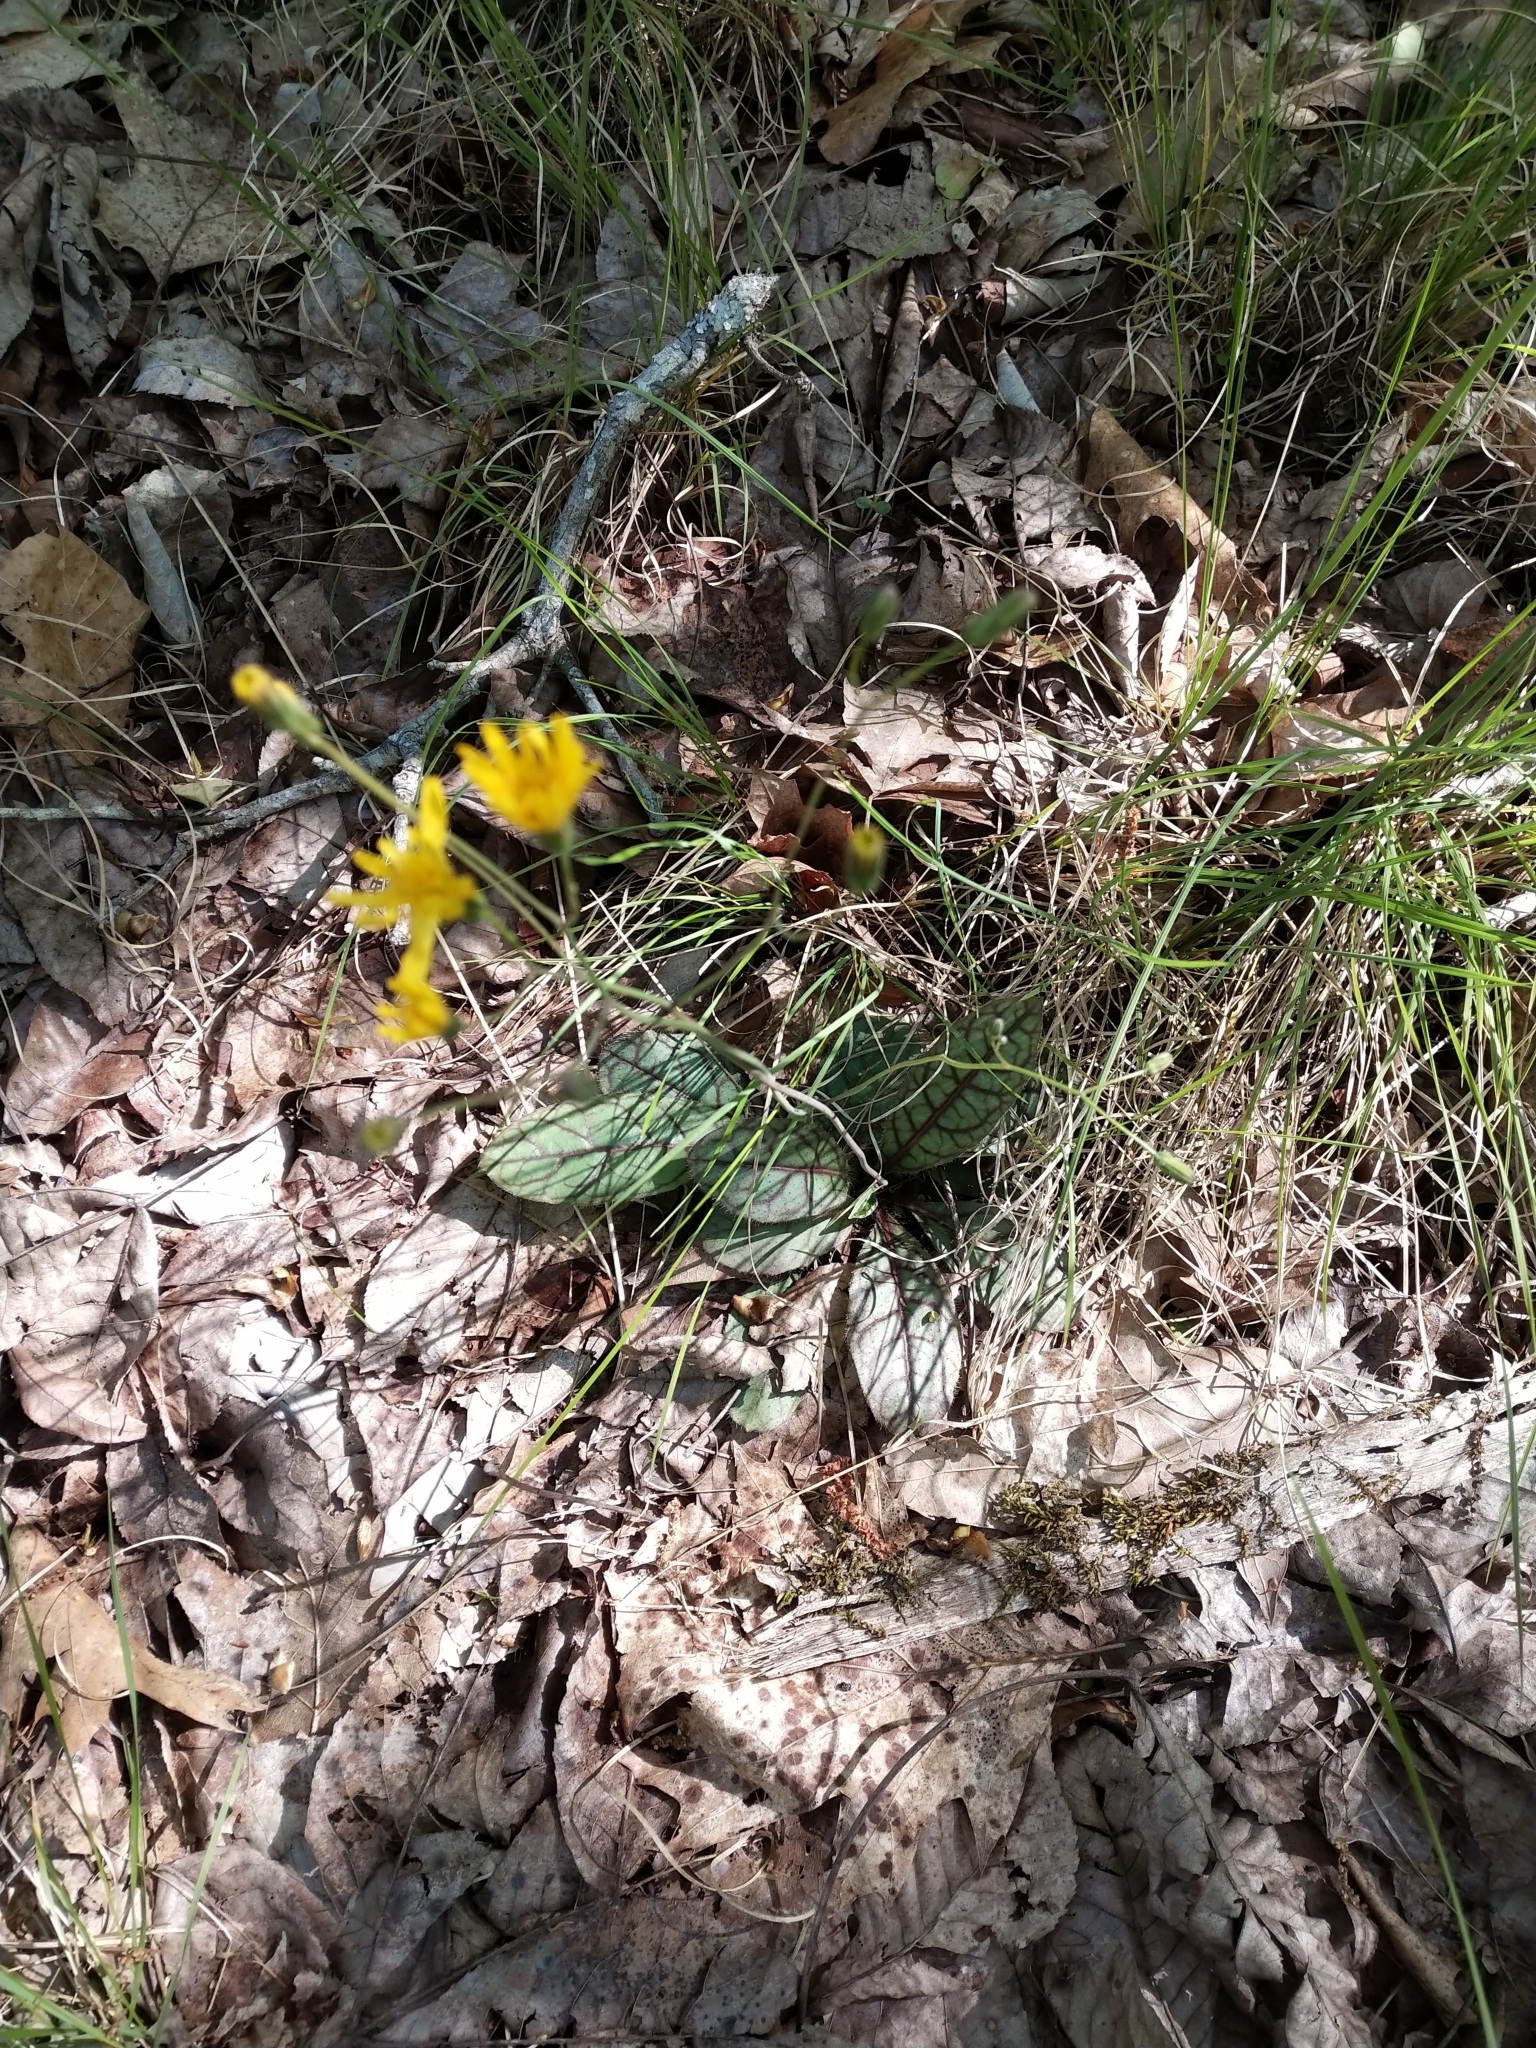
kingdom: Plantae
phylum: Tracheophyta
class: Magnoliopsida
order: Asterales
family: Asteraceae
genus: Hieracium
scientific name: Hieracium venosum
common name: Rattlesnake hawkweed
